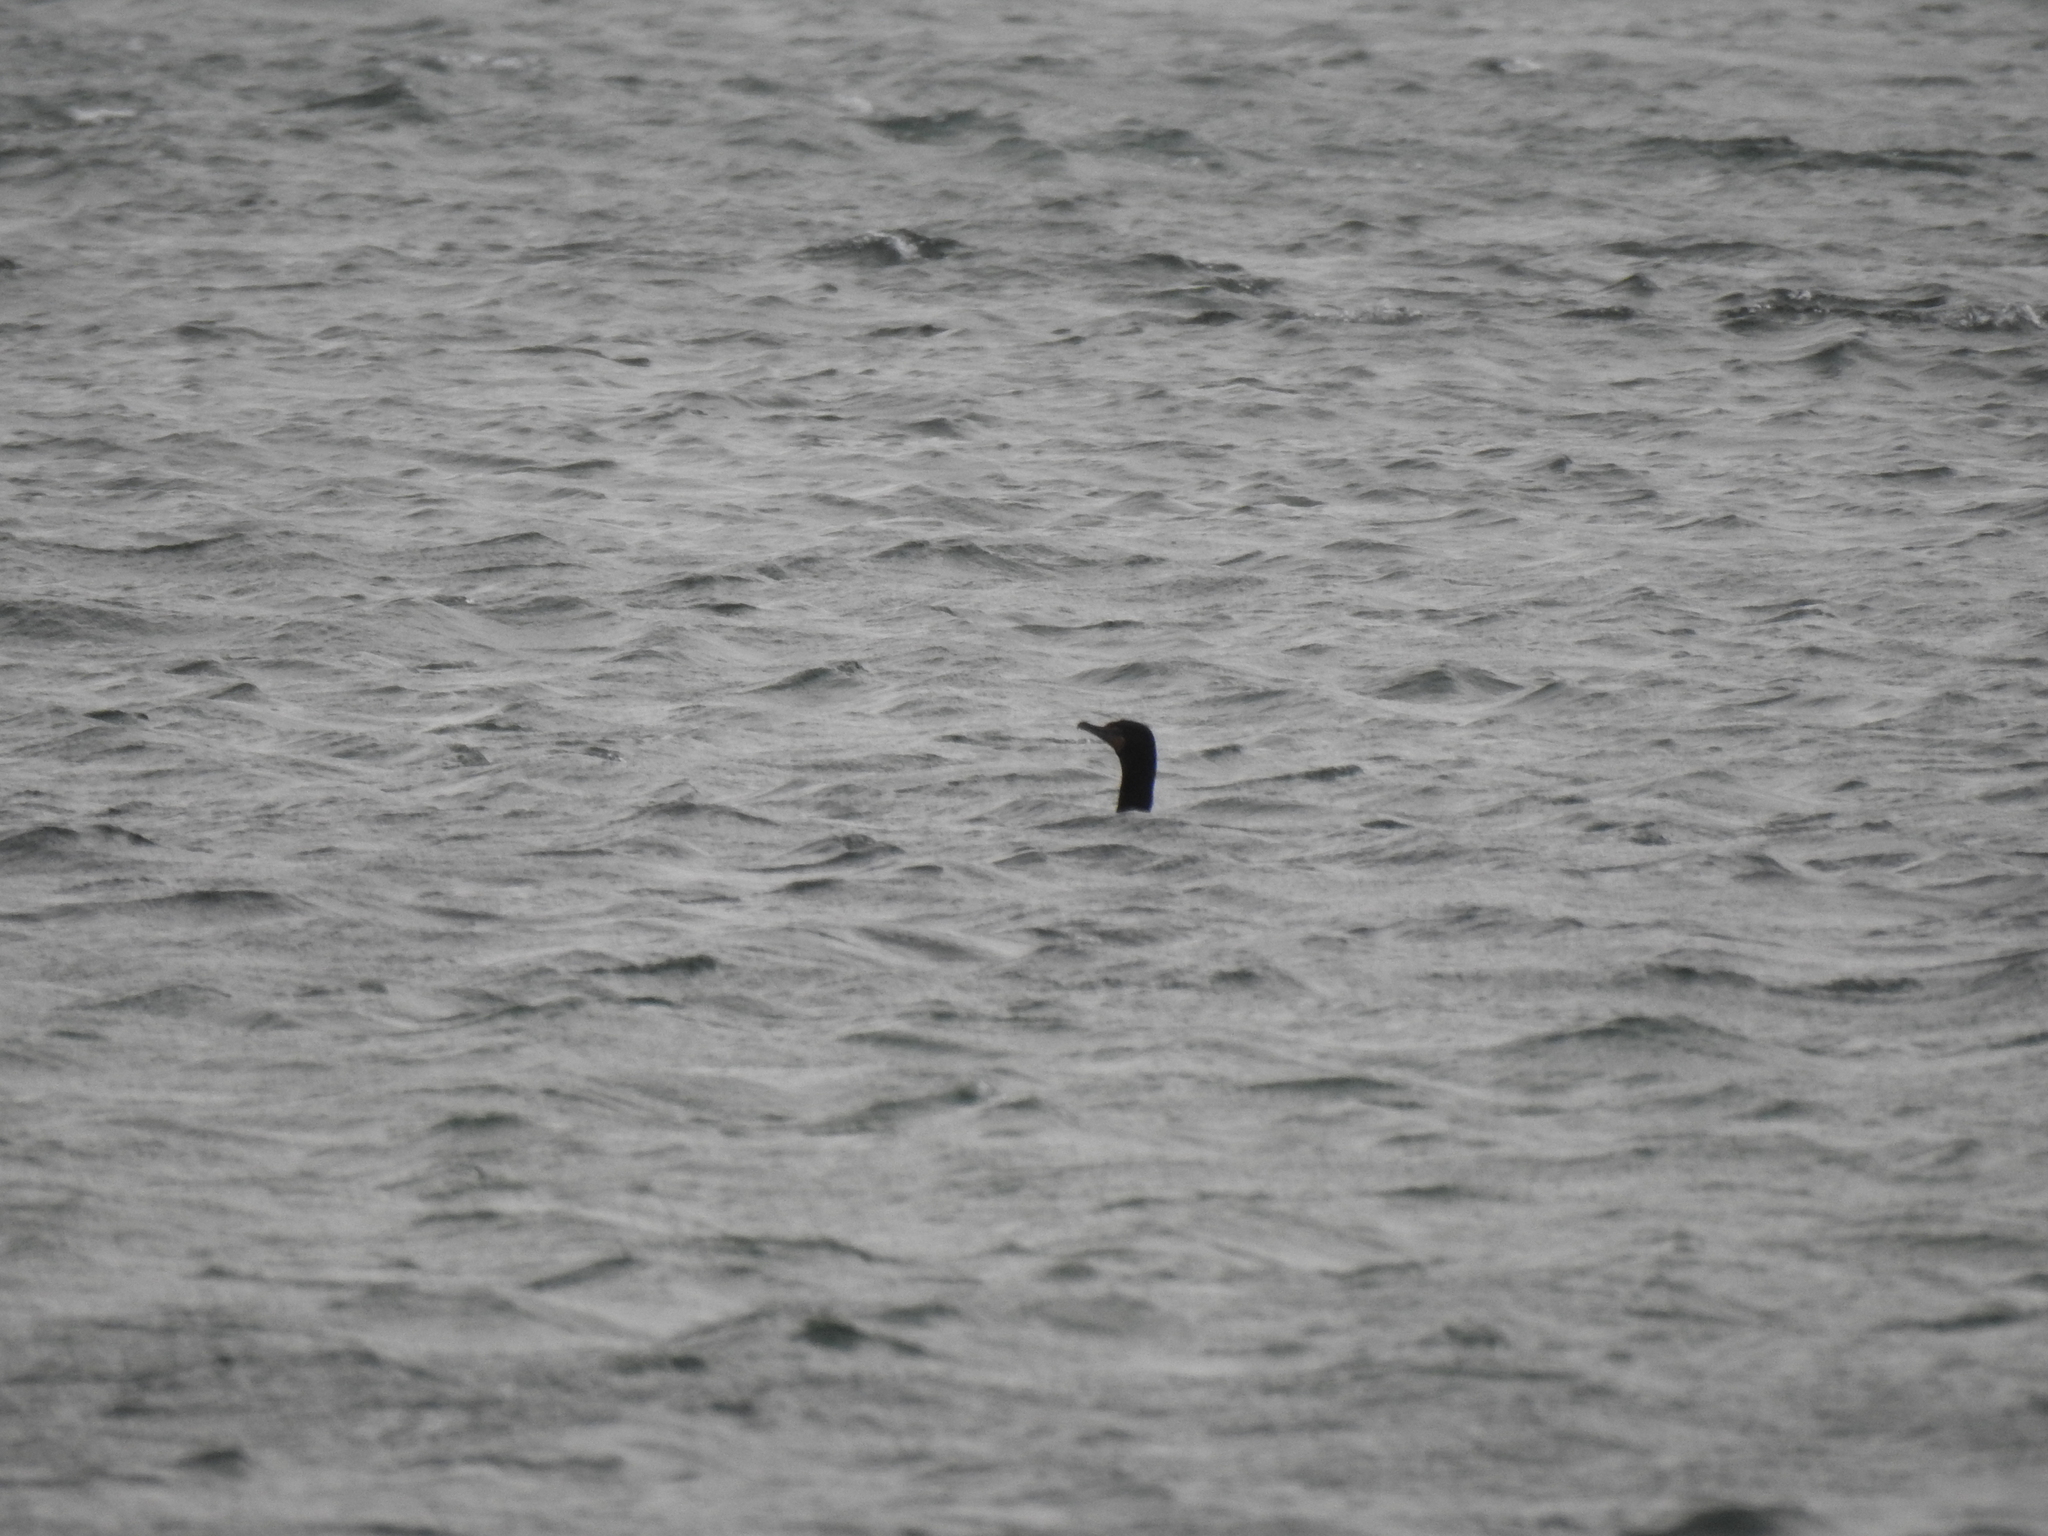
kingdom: Animalia
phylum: Chordata
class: Aves
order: Suliformes
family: Phalacrocoracidae
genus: Phalacrocorax
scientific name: Phalacrocorax auritus
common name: Double-crested cormorant
